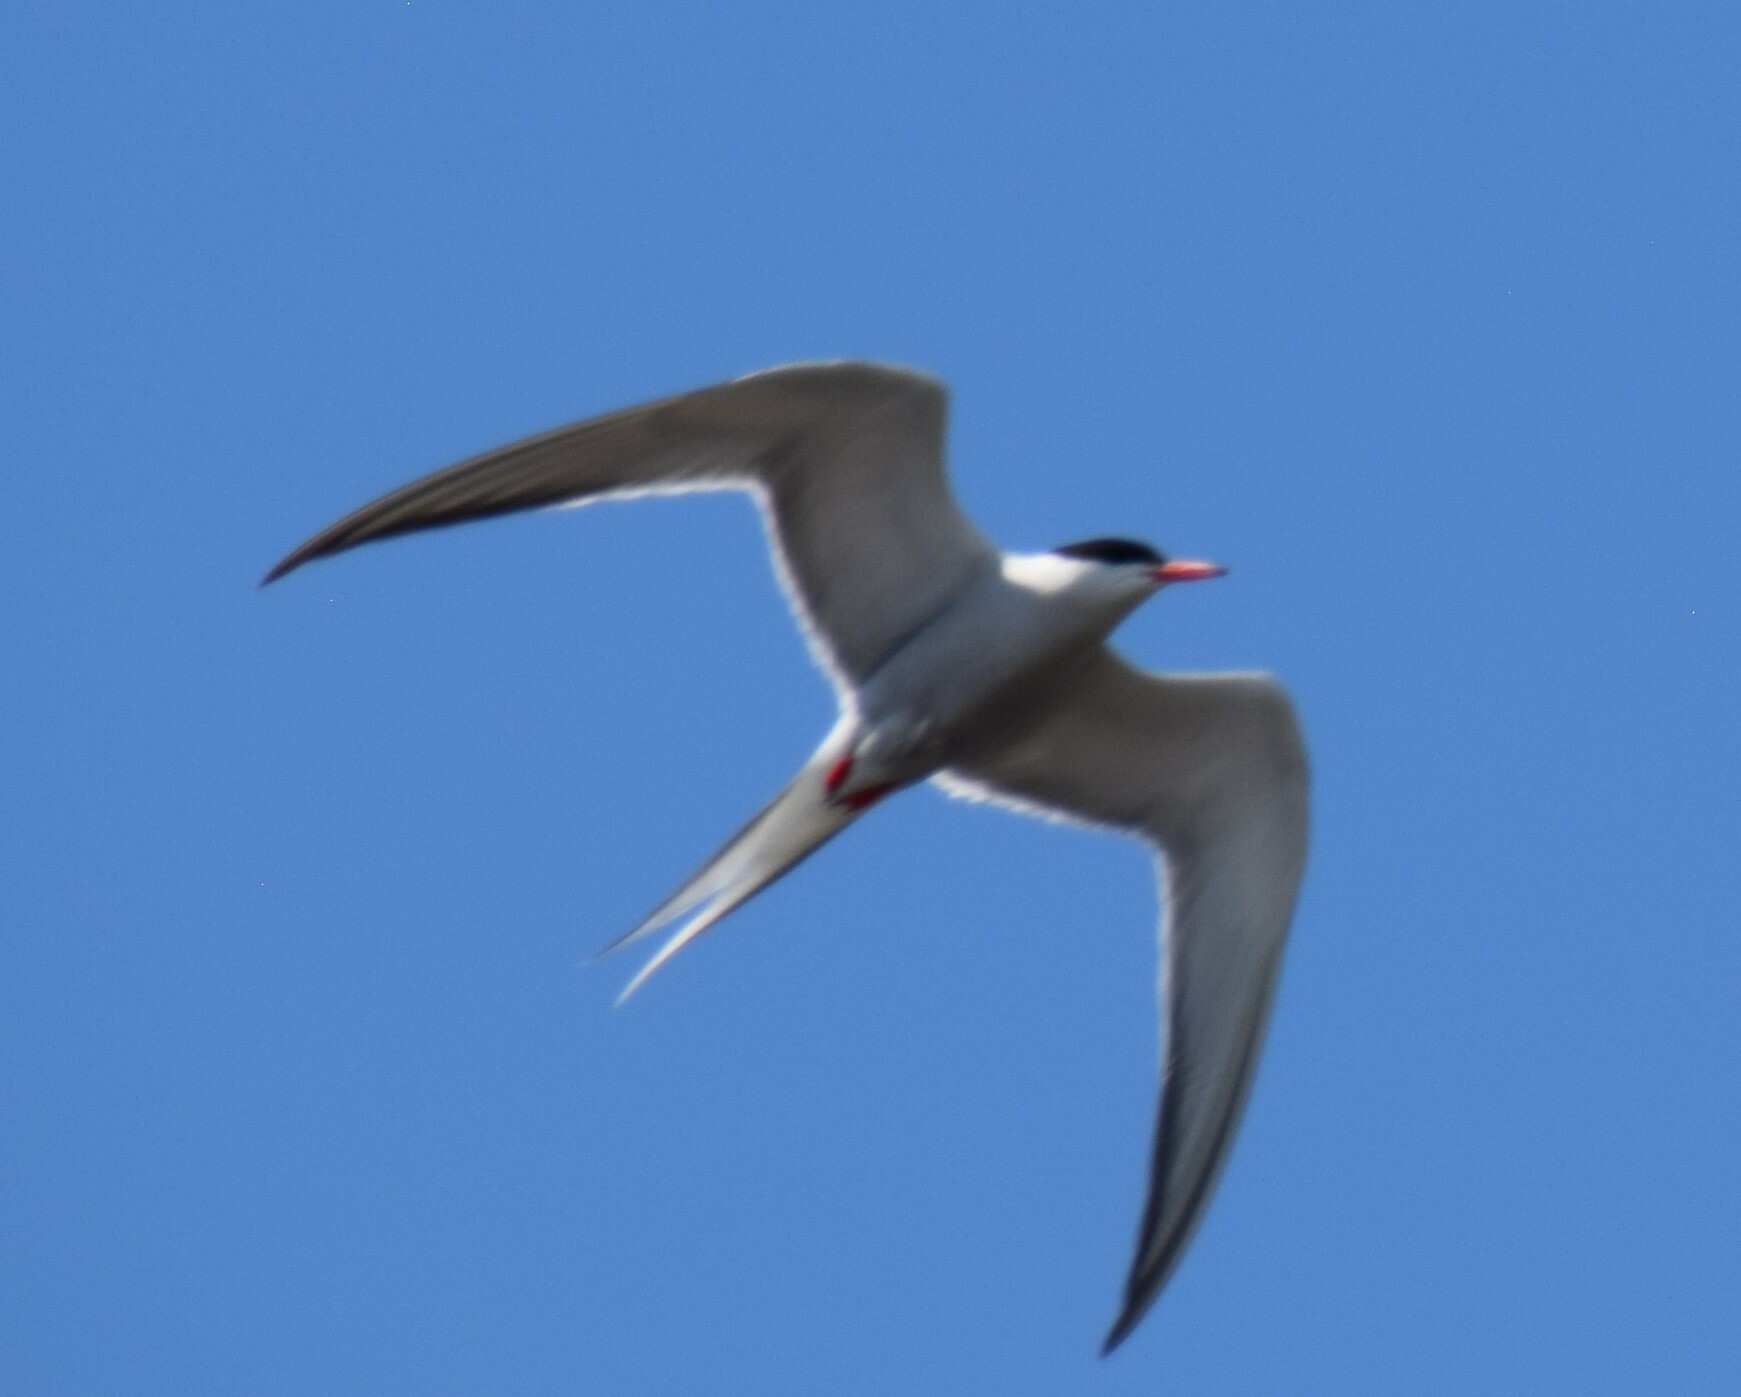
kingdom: Animalia
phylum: Chordata
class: Aves
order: Charadriiformes
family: Laridae
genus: Sterna
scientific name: Sterna hirundo
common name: Common tern
